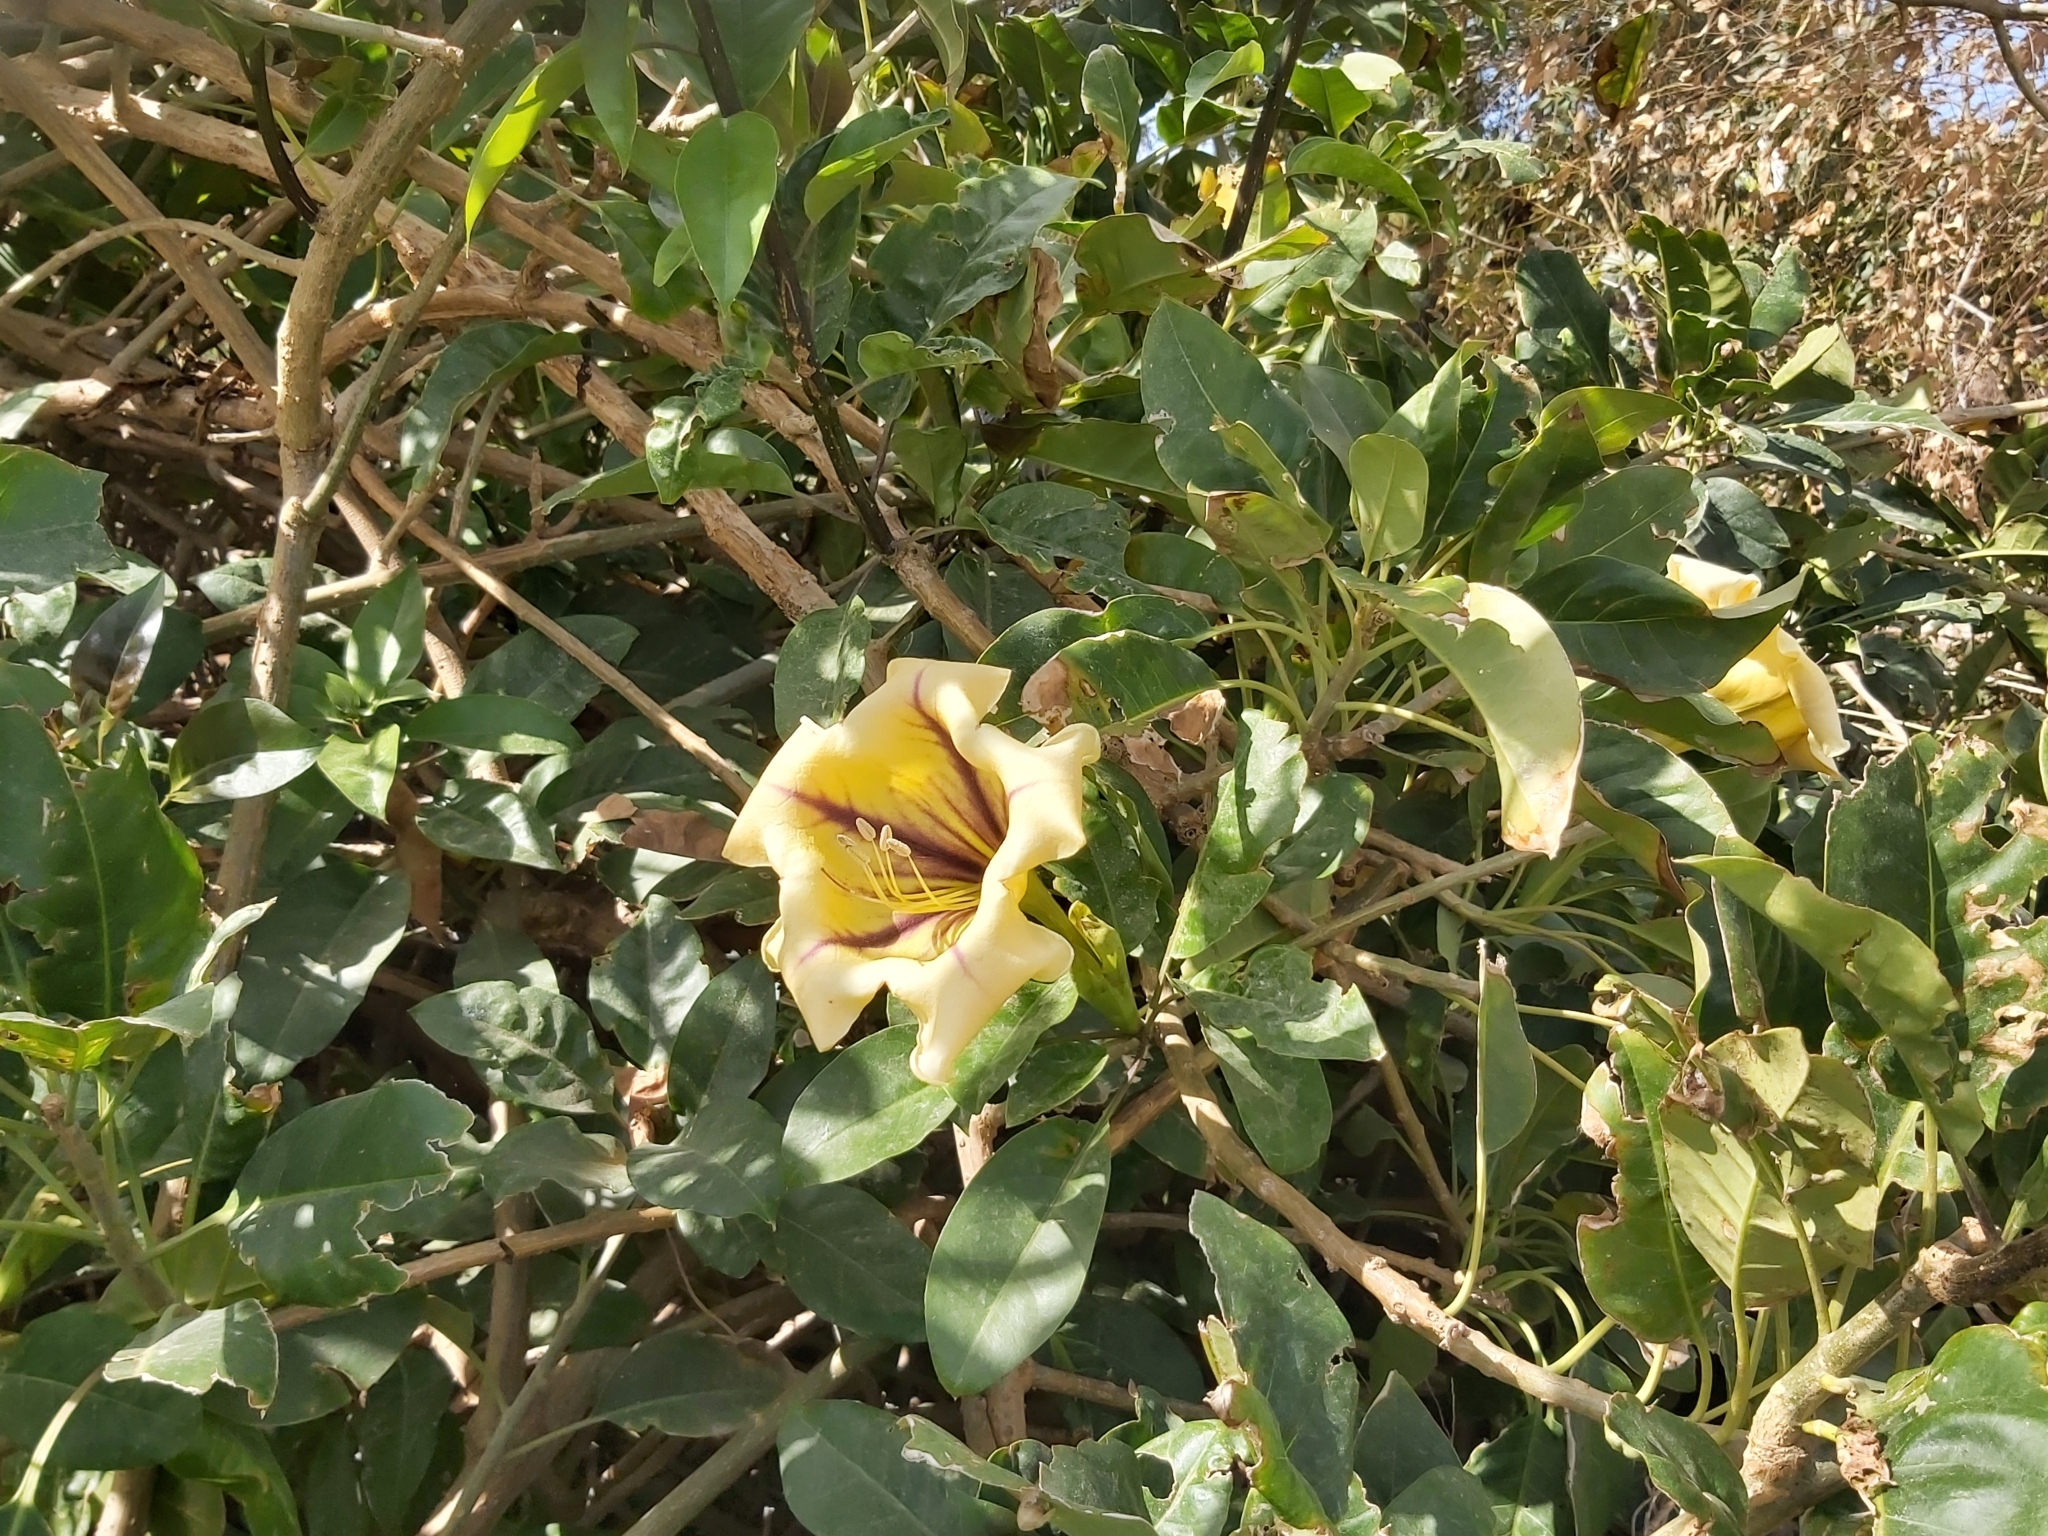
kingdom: Plantae
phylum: Tracheophyta
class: Magnoliopsida
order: Solanales
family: Solanaceae
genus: Solandra
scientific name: Solandra maxima
